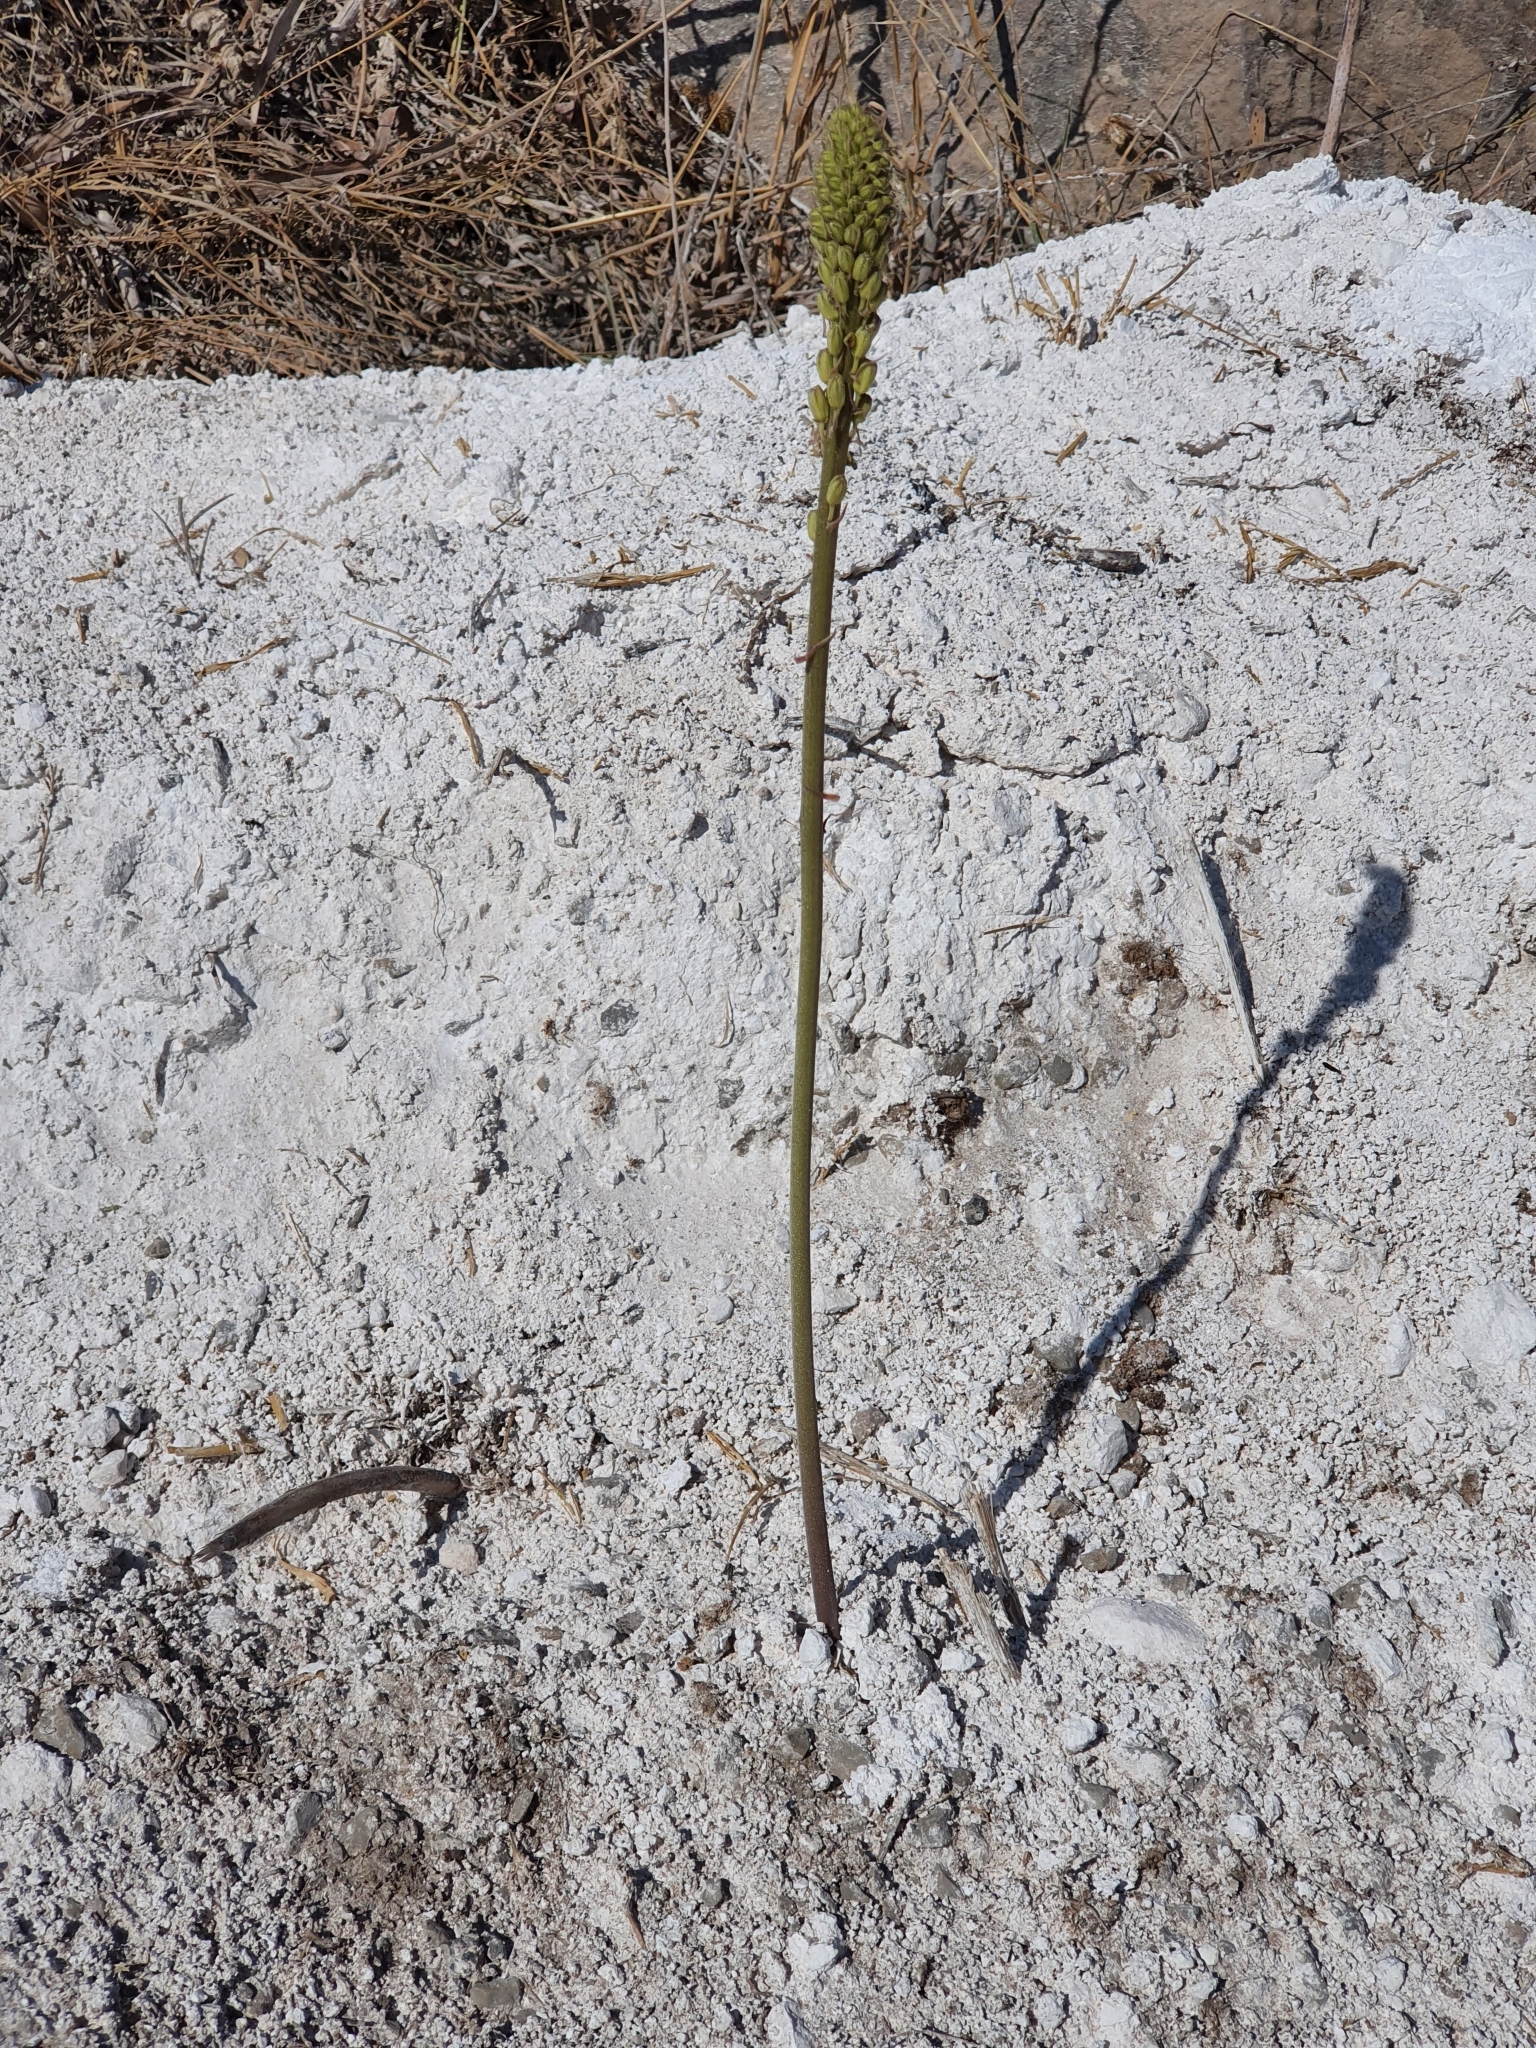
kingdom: Plantae
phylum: Tracheophyta
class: Liliopsida
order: Asparagales
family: Asparagaceae
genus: Drimia
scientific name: Drimia anthericoides
